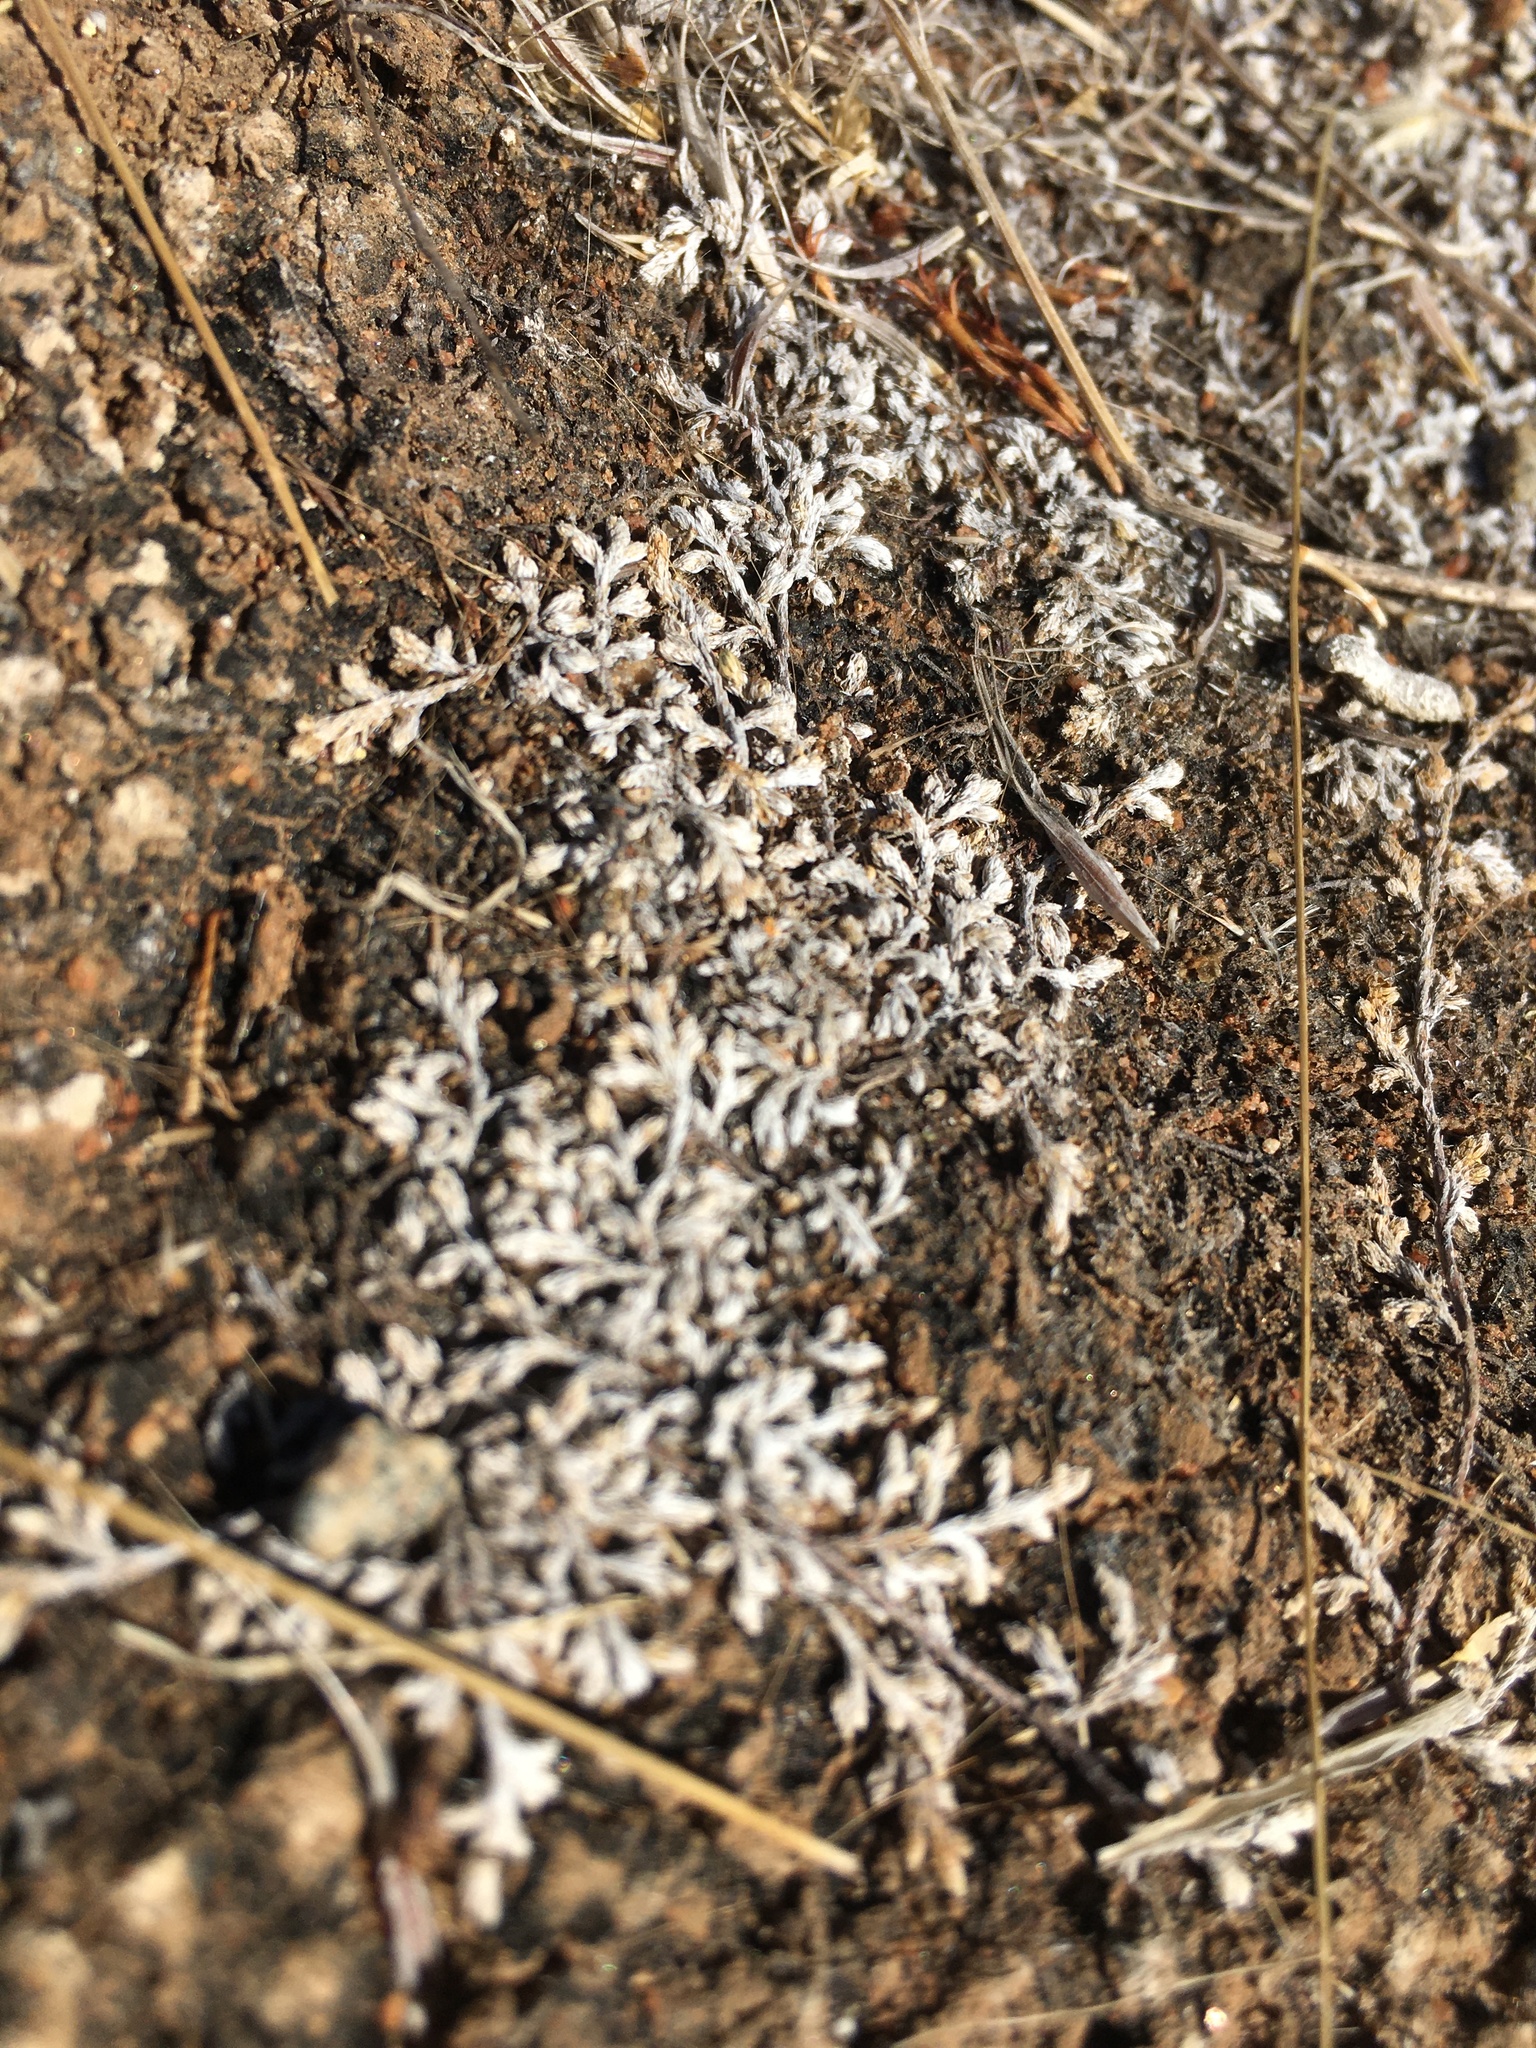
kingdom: Plantae
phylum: Tracheophyta
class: Lycopodiopsida
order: Selaginellales
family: Selaginellaceae
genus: Selaginella
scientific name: Selaginella cinerascens
